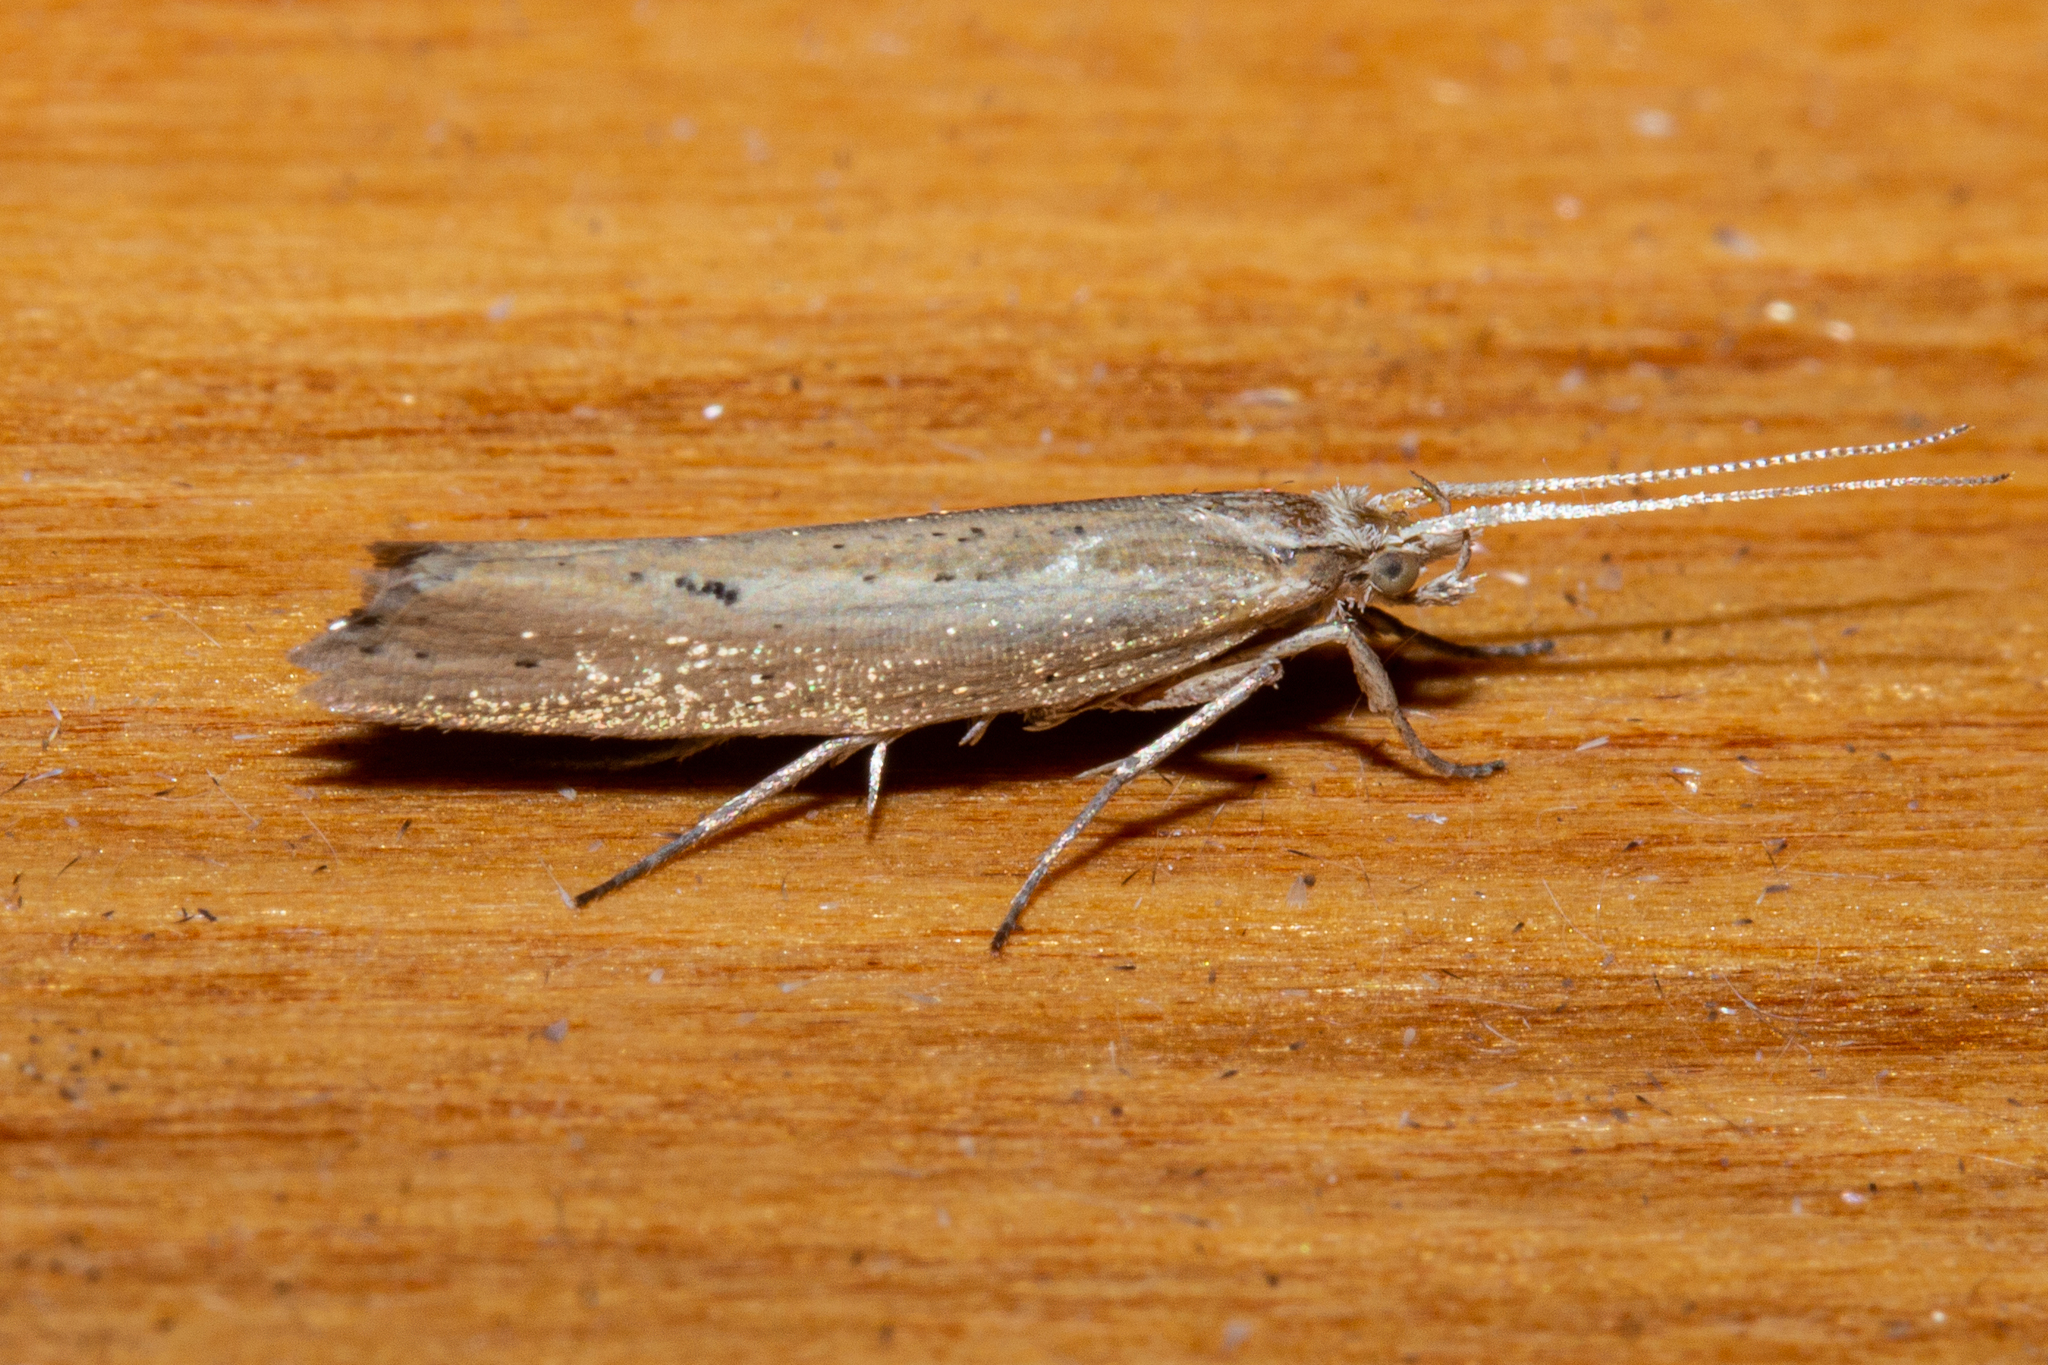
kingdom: Animalia
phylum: Arthropoda
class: Insecta
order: Lepidoptera
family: Plutellidae
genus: Plutella
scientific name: Plutella
